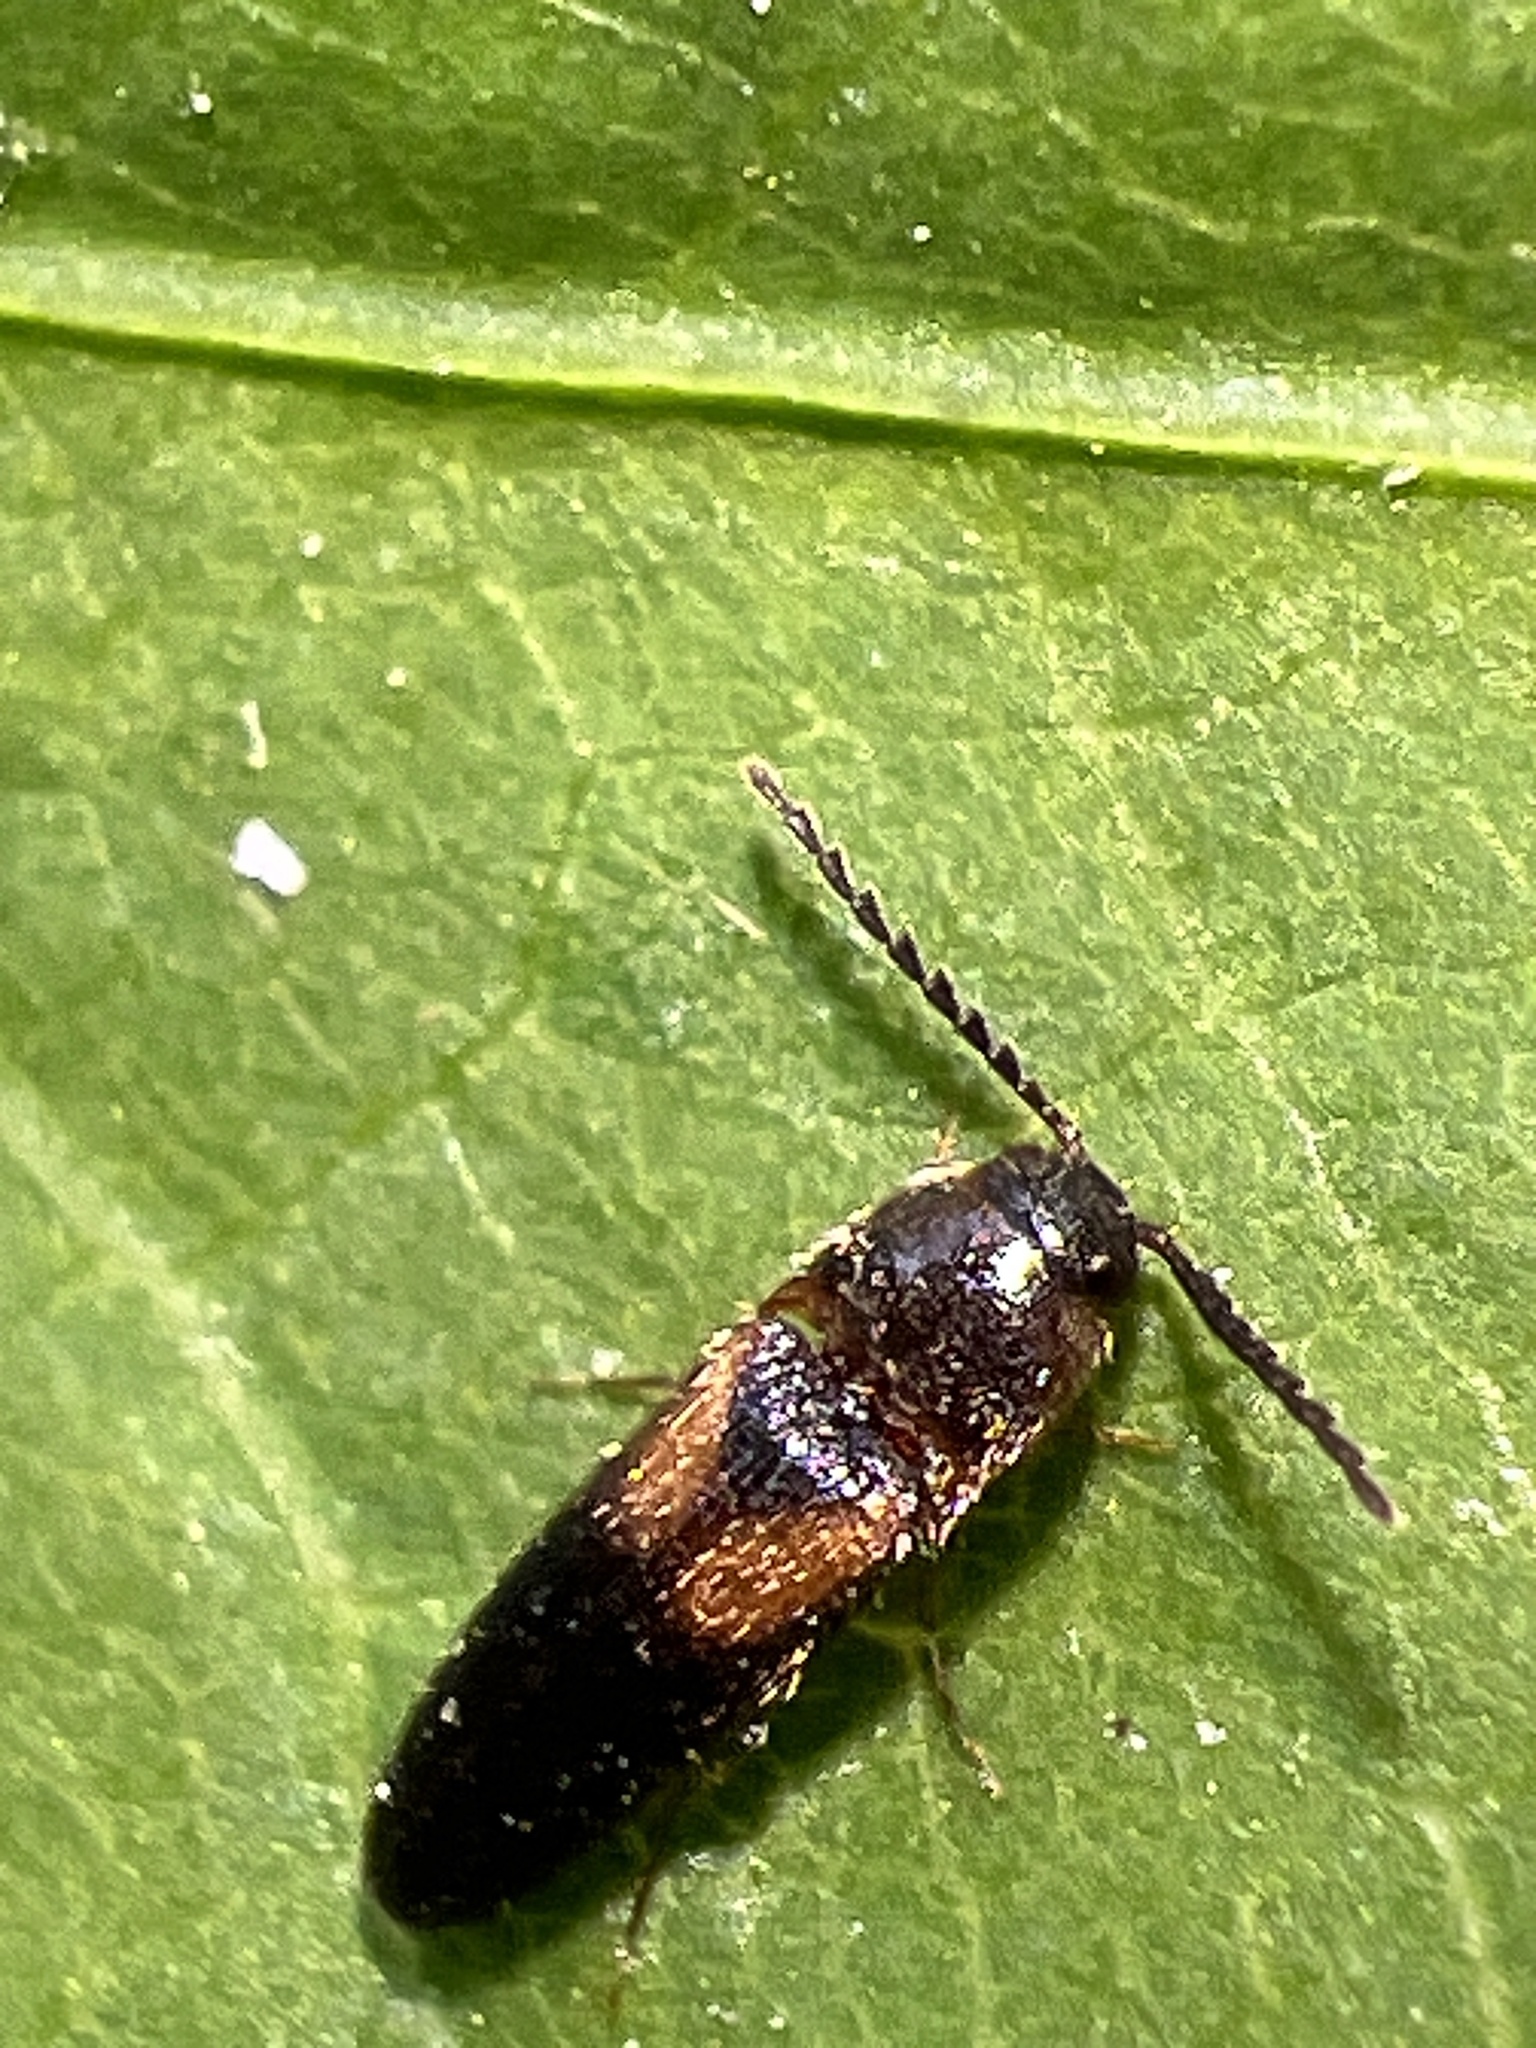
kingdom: Animalia
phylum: Arthropoda
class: Insecta
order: Coleoptera
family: Elateridae
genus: Ampedus
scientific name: Ampedus areolatus
